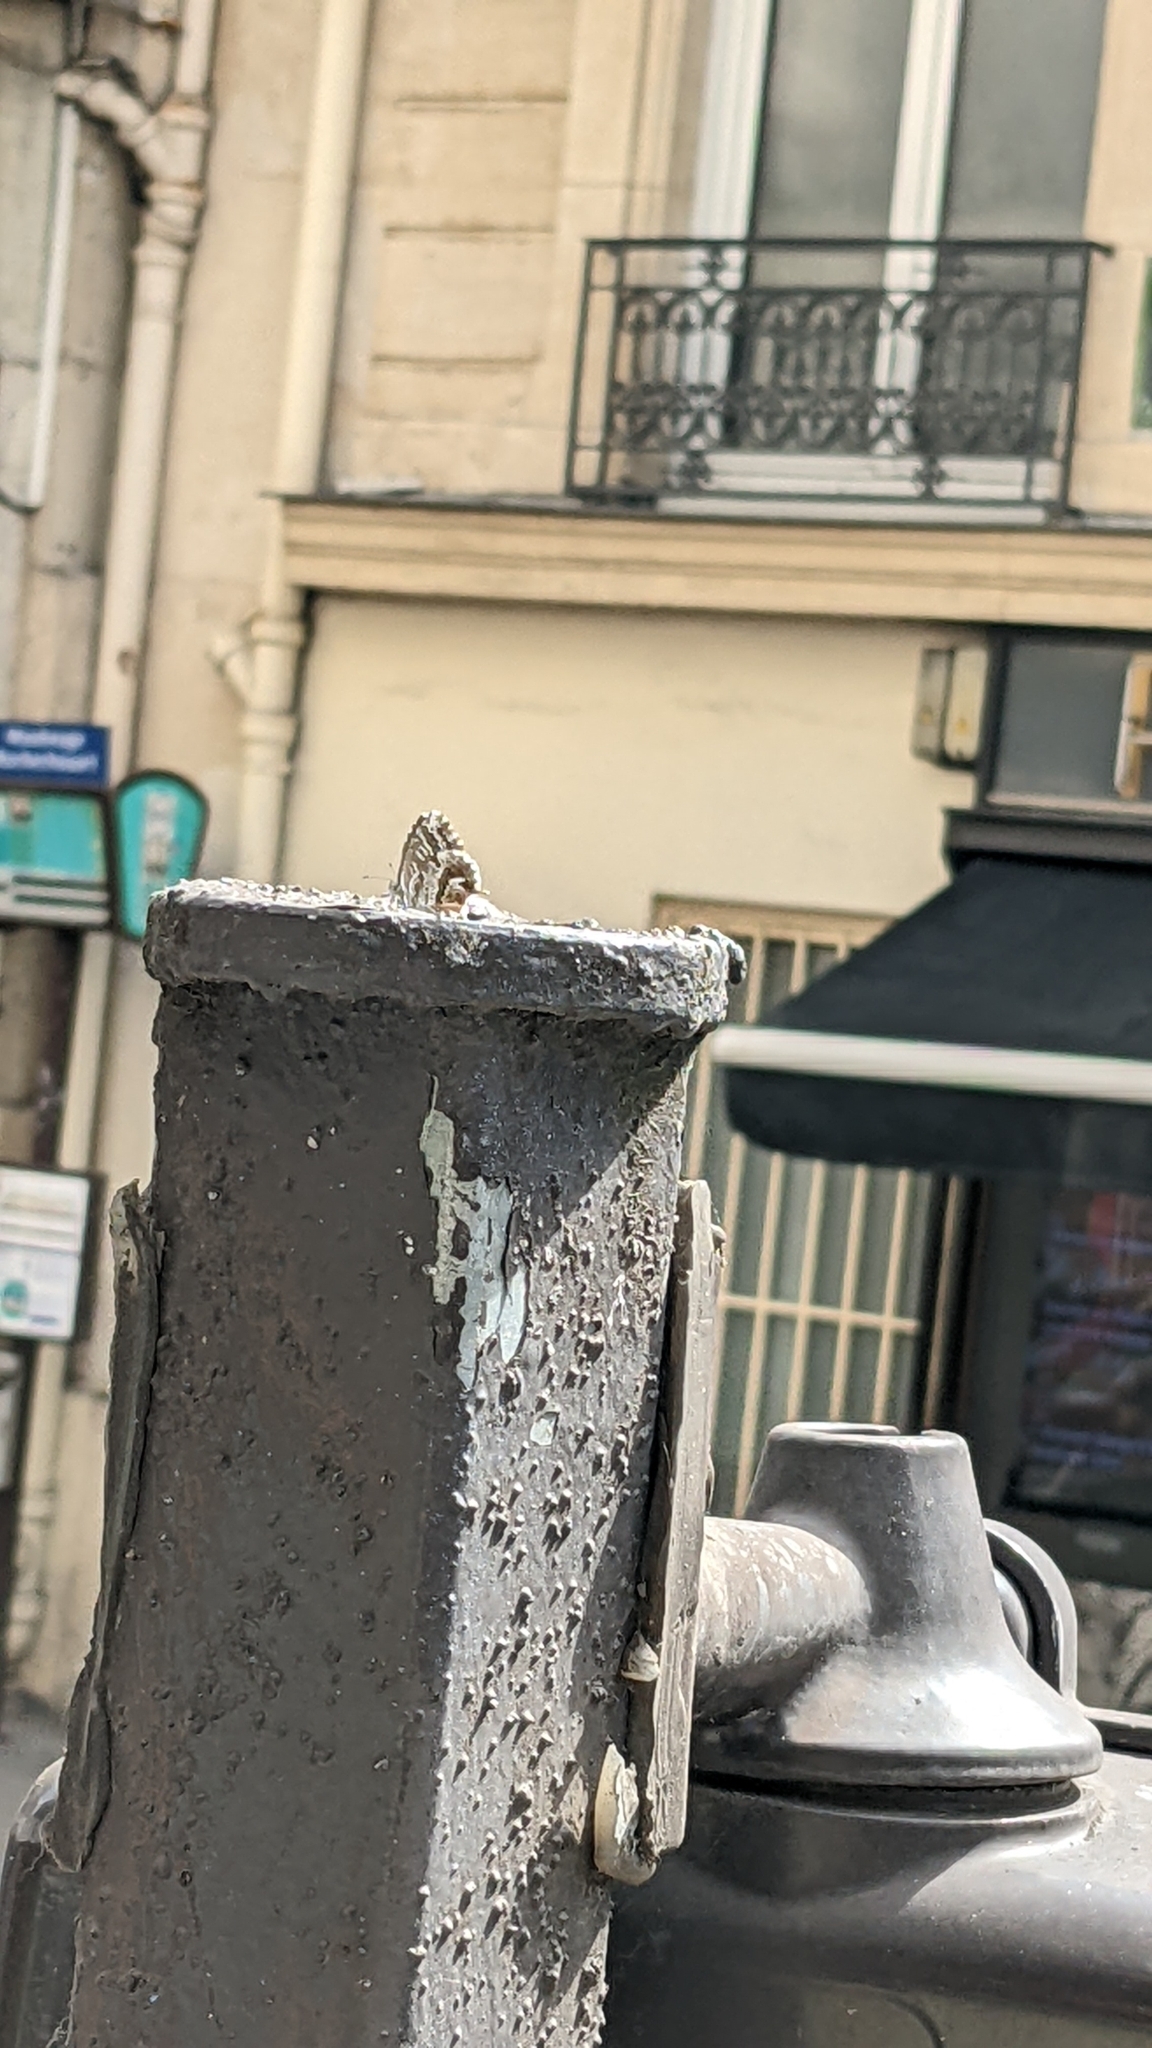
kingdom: Animalia
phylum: Arthropoda
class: Insecta
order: Lepidoptera
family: Lycaenidae
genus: Cacyreus
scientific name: Cacyreus marshalli
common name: Geranium bronze
